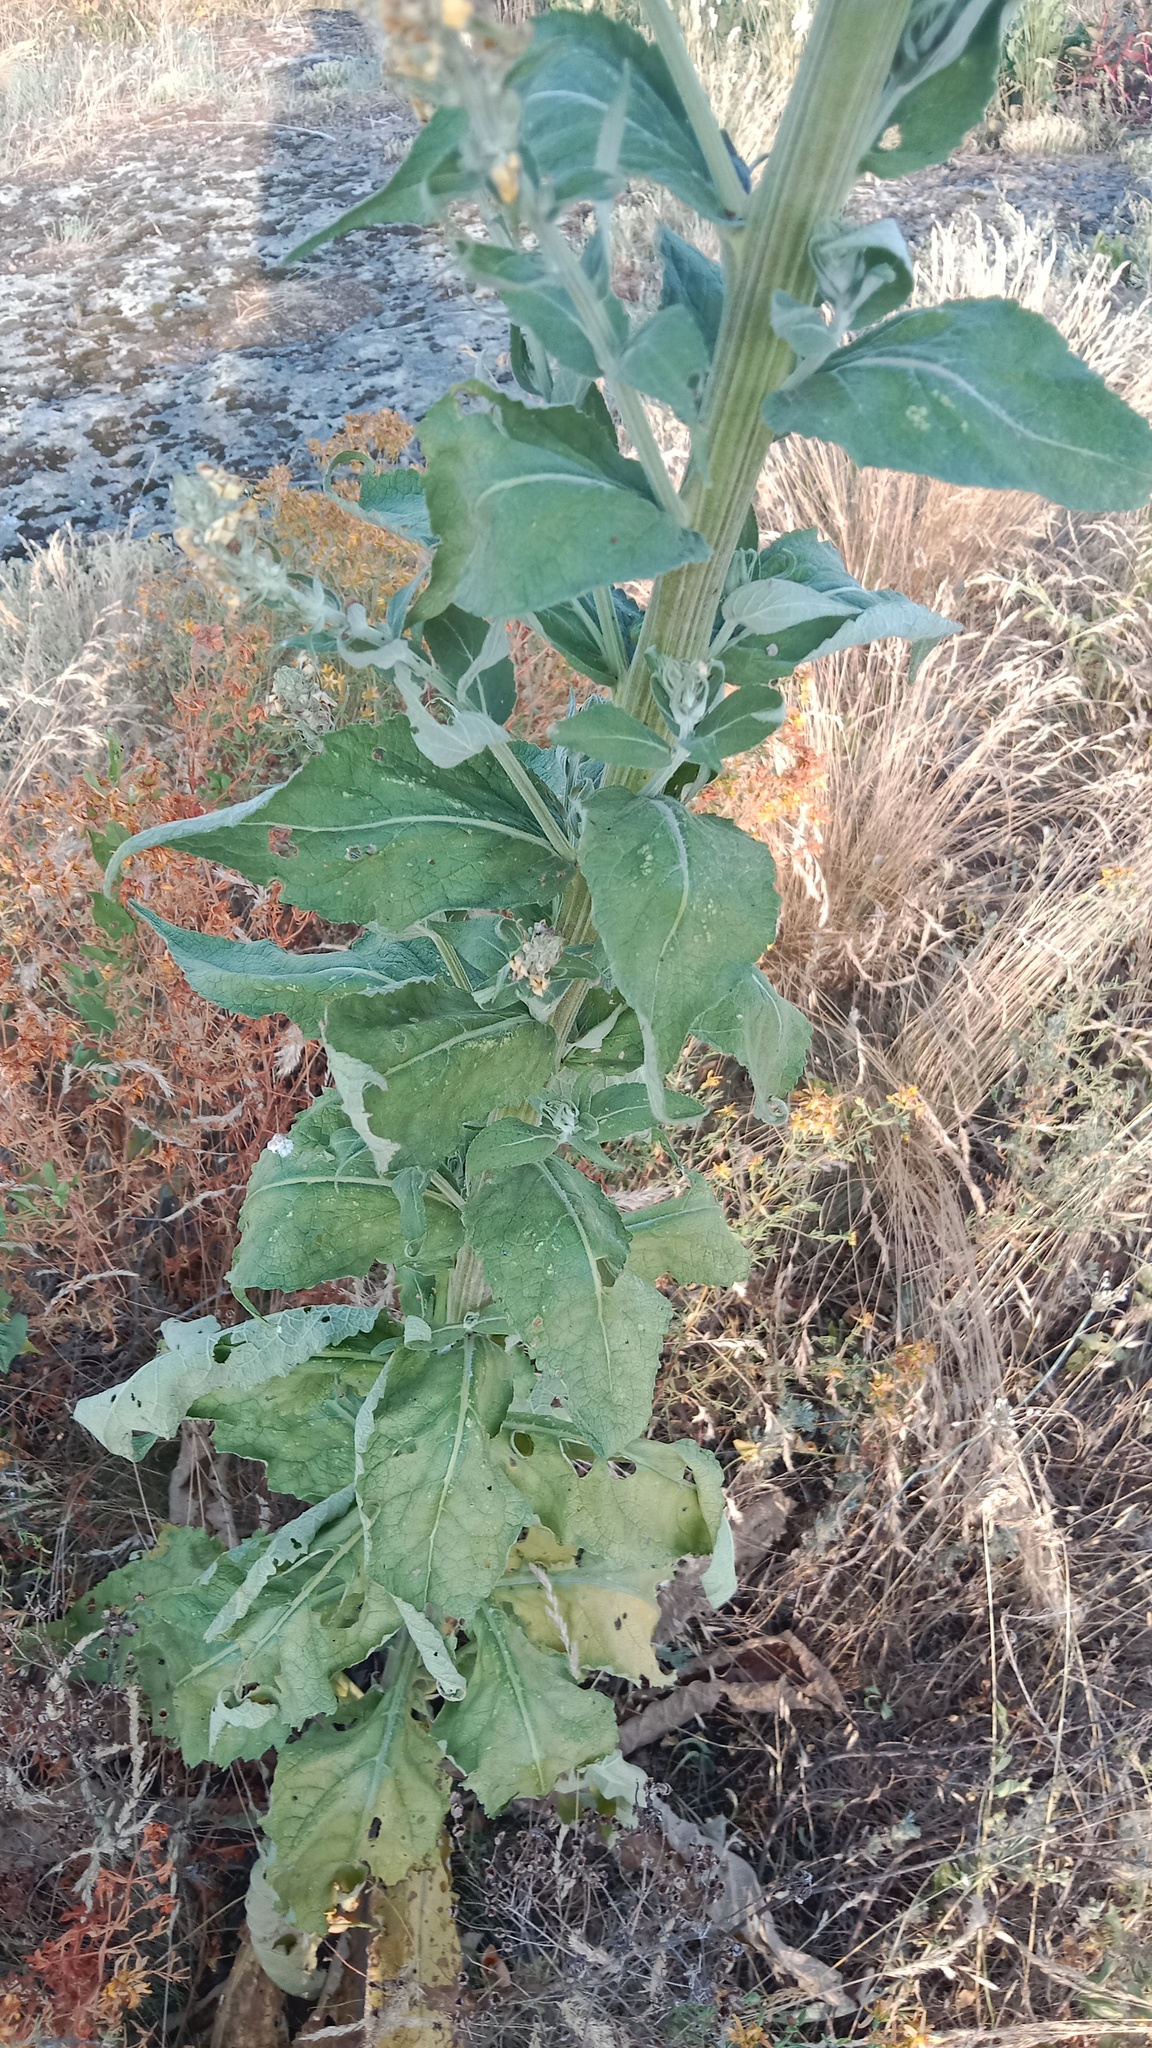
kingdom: Plantae
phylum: Tracheophyta
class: Magnoliopsida
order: Lamiales
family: Scrophulariaceae
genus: Verbascum
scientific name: Verbascum lychnitis
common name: White mullein
